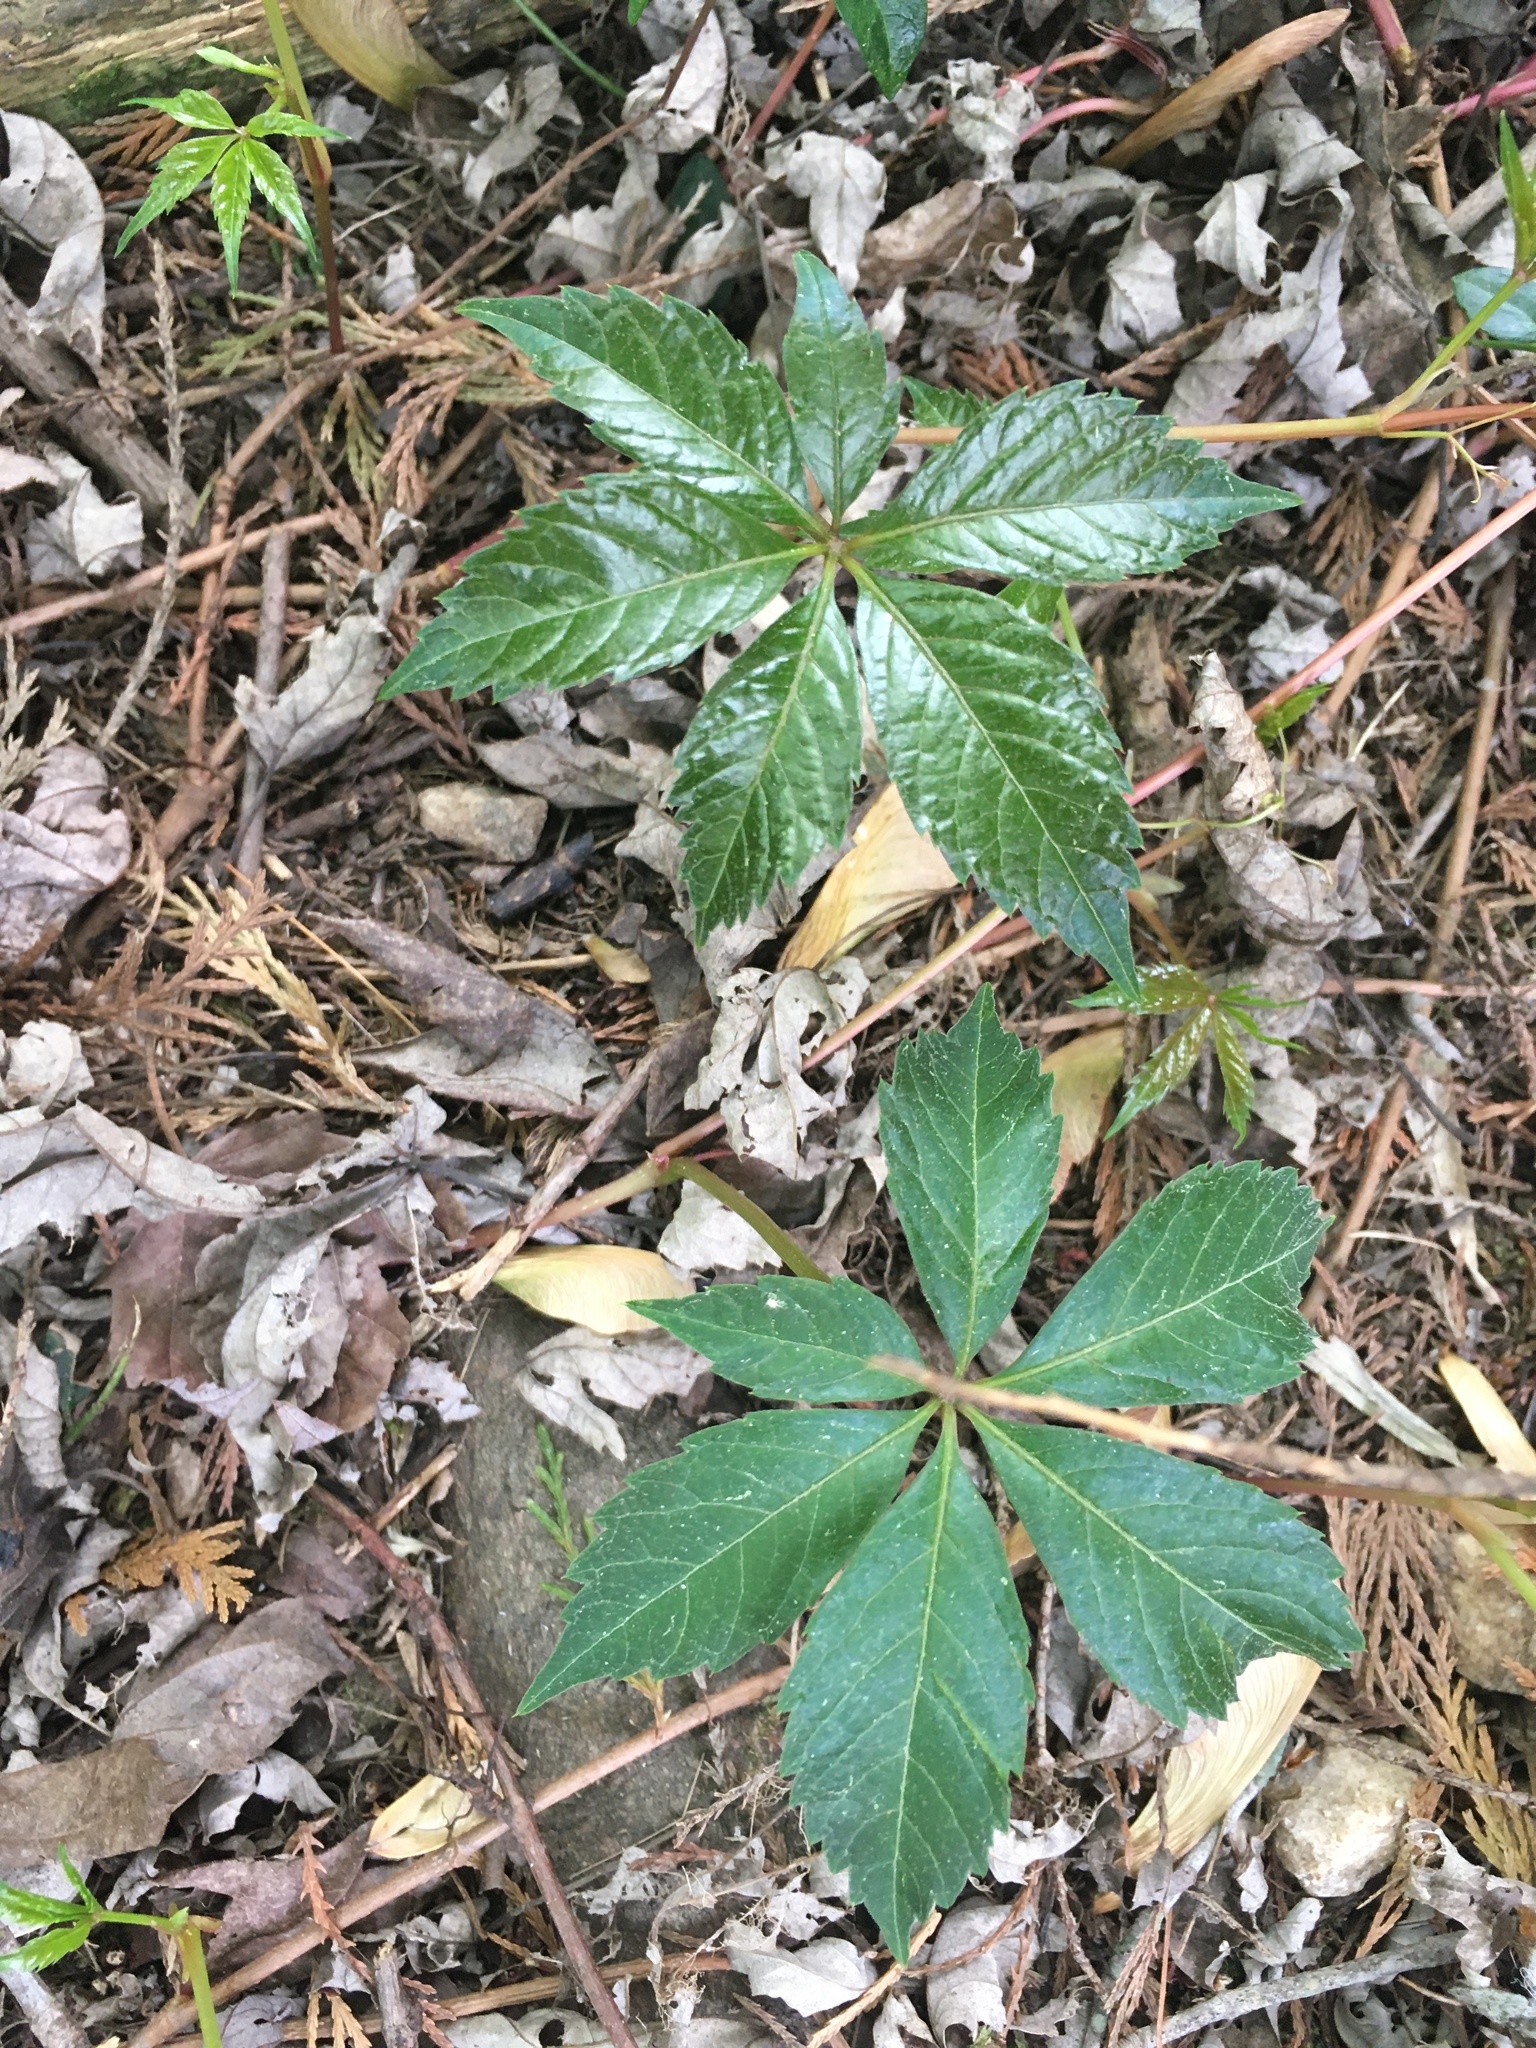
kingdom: Plantae
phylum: Tracheophyta
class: Magnoliopsida
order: Vitales
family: Vitaceae
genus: Parthenocissus
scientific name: Parthenocissus quinquefolia
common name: Virginia-creeper
